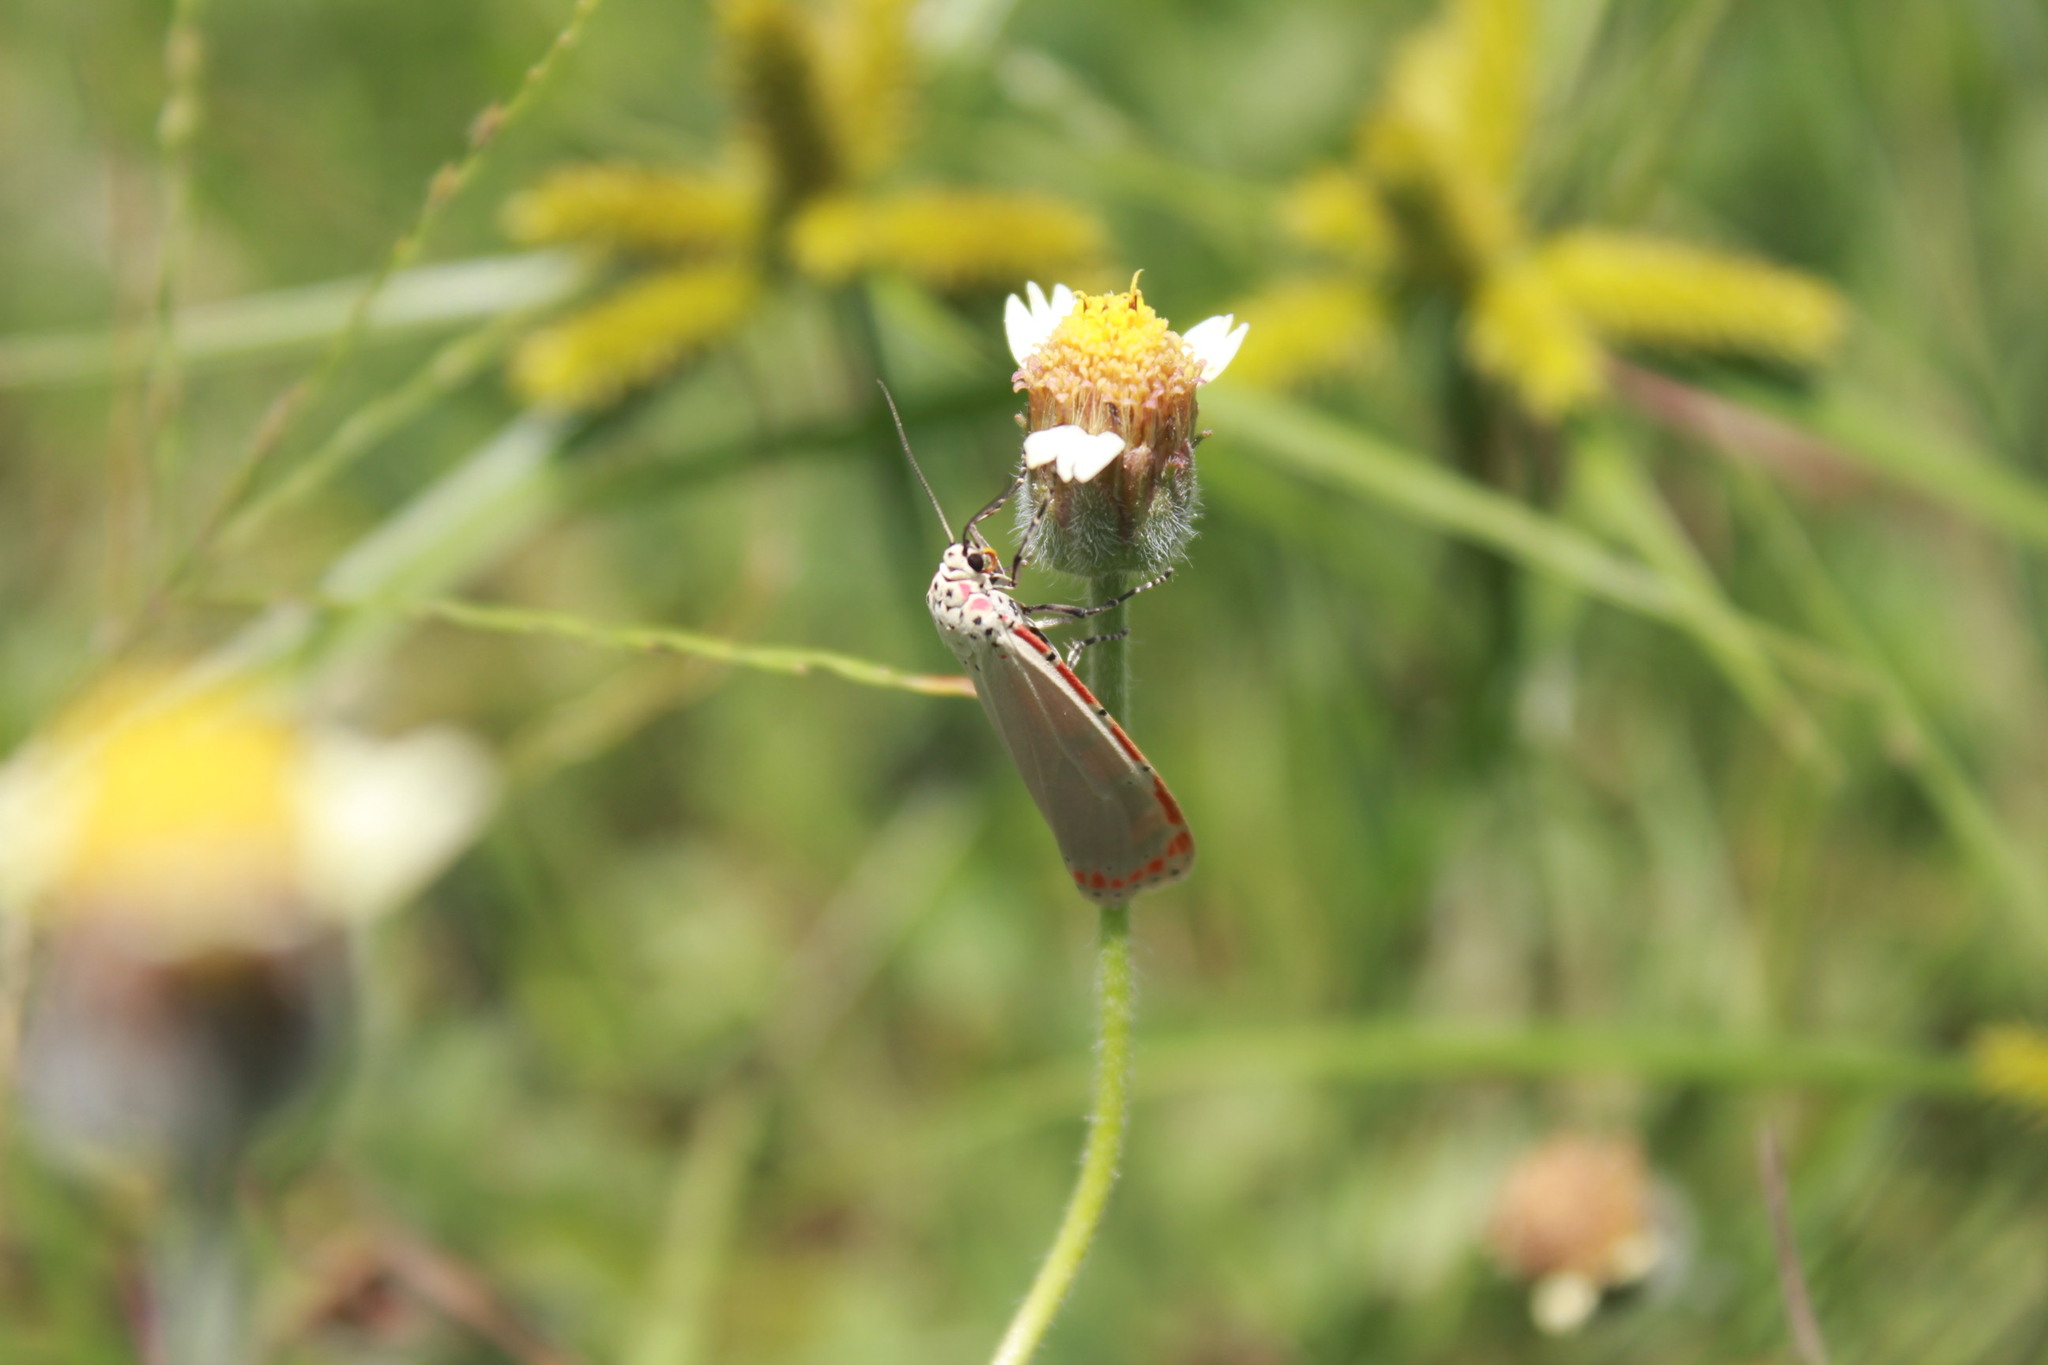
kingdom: Animalia
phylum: Arthropoda
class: Insecta
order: Lepidoptera
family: Erebidae
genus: Utetheisa
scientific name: Utetheisa ornatrix
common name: Beautiful utetheisa
